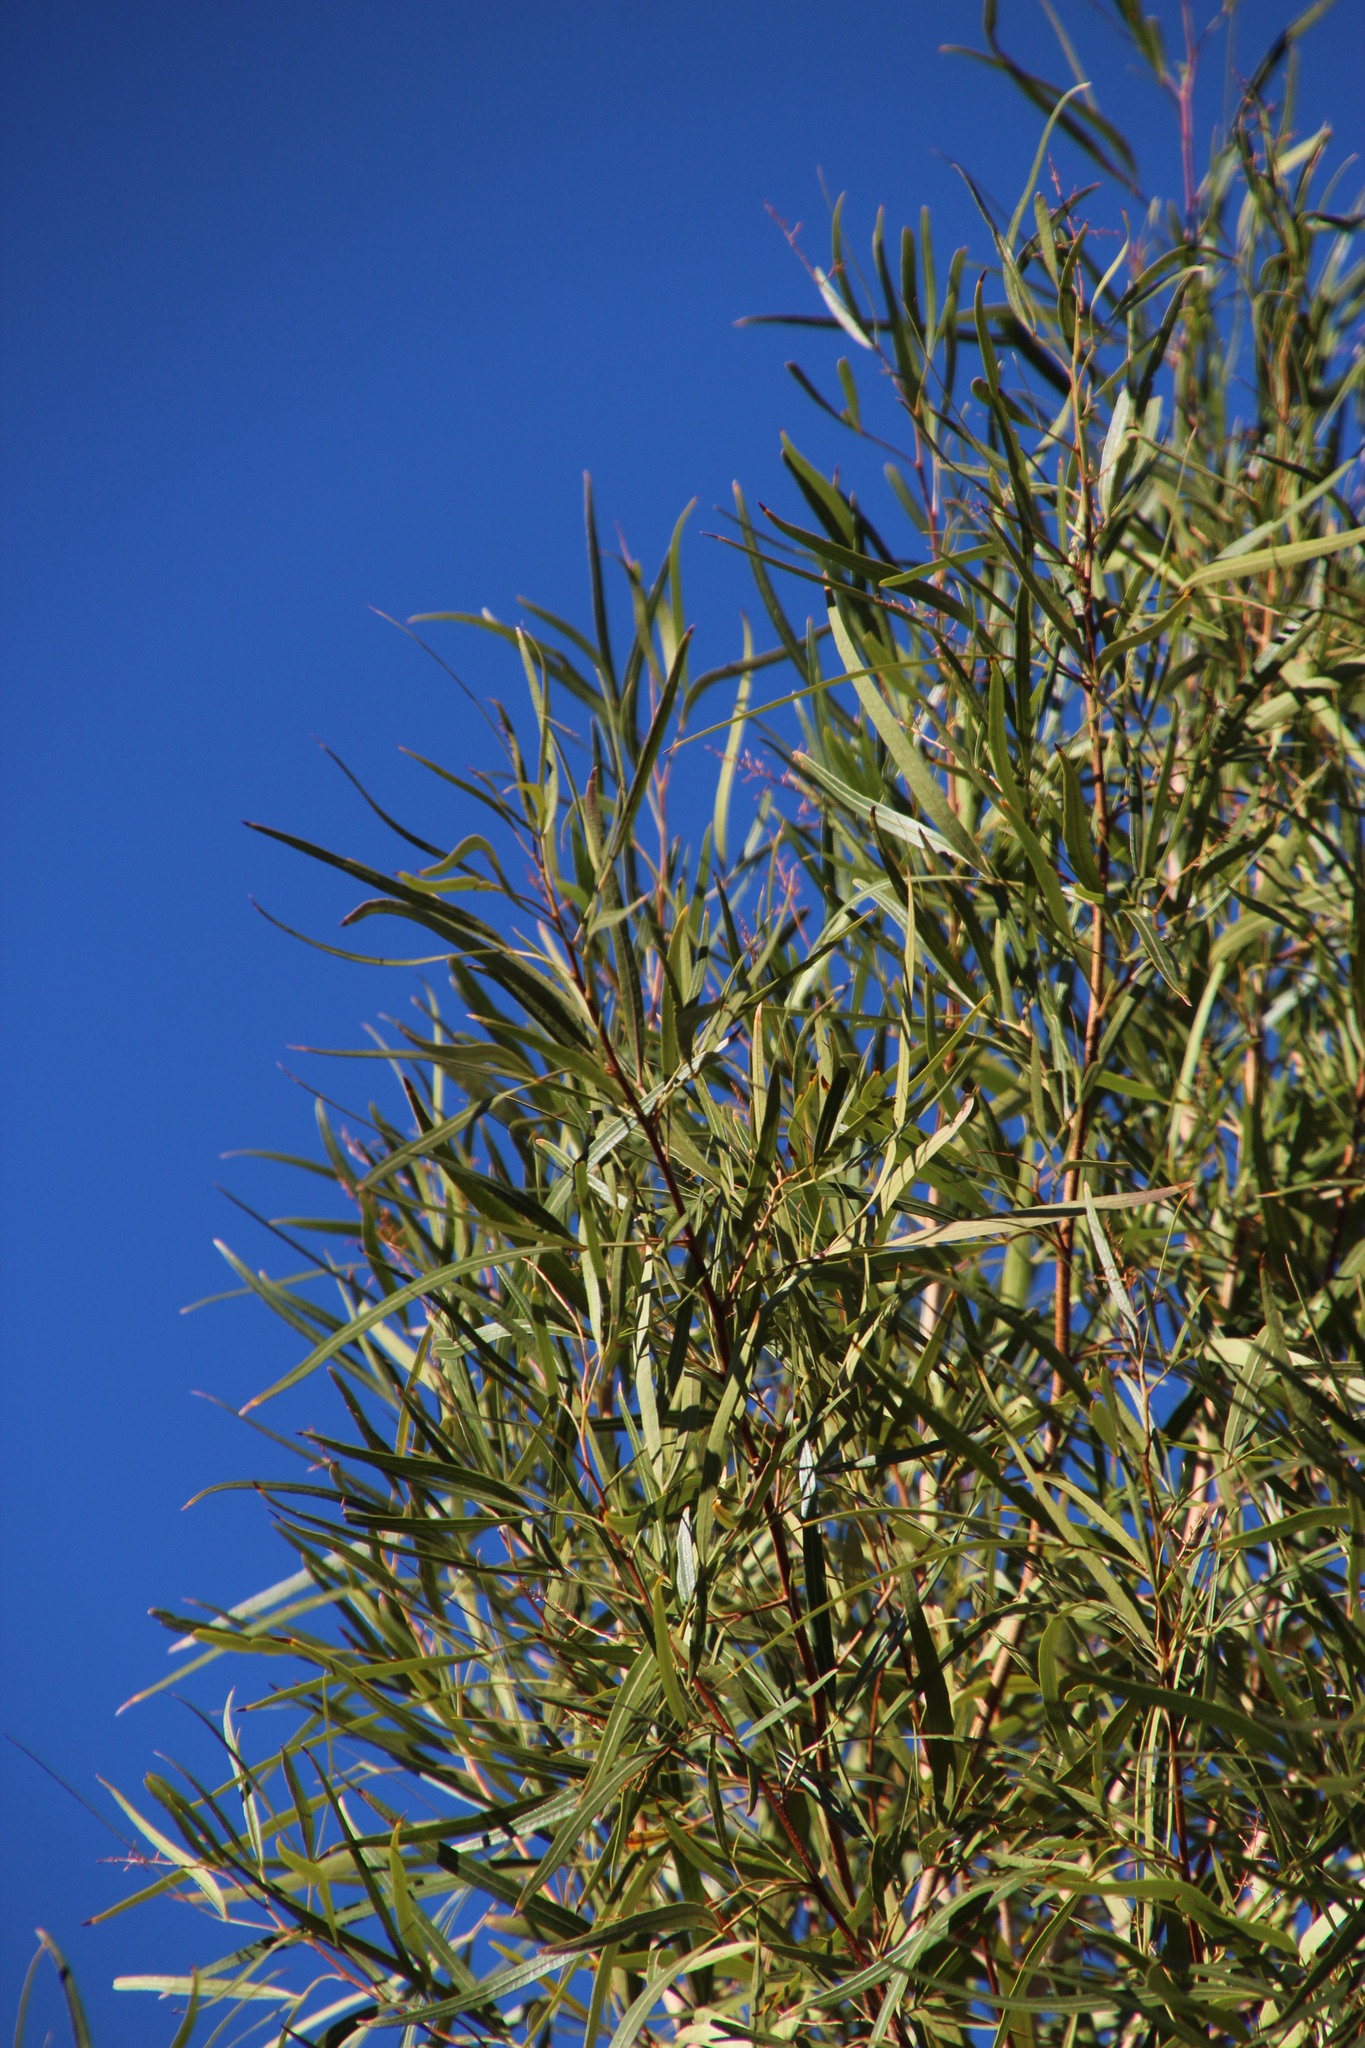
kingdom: Plantae
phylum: Tracheophyta
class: Magnoliopsida
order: Sapindales
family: Anacardiaceae
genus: Searsia
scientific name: Searsia lancea
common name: Cashew
